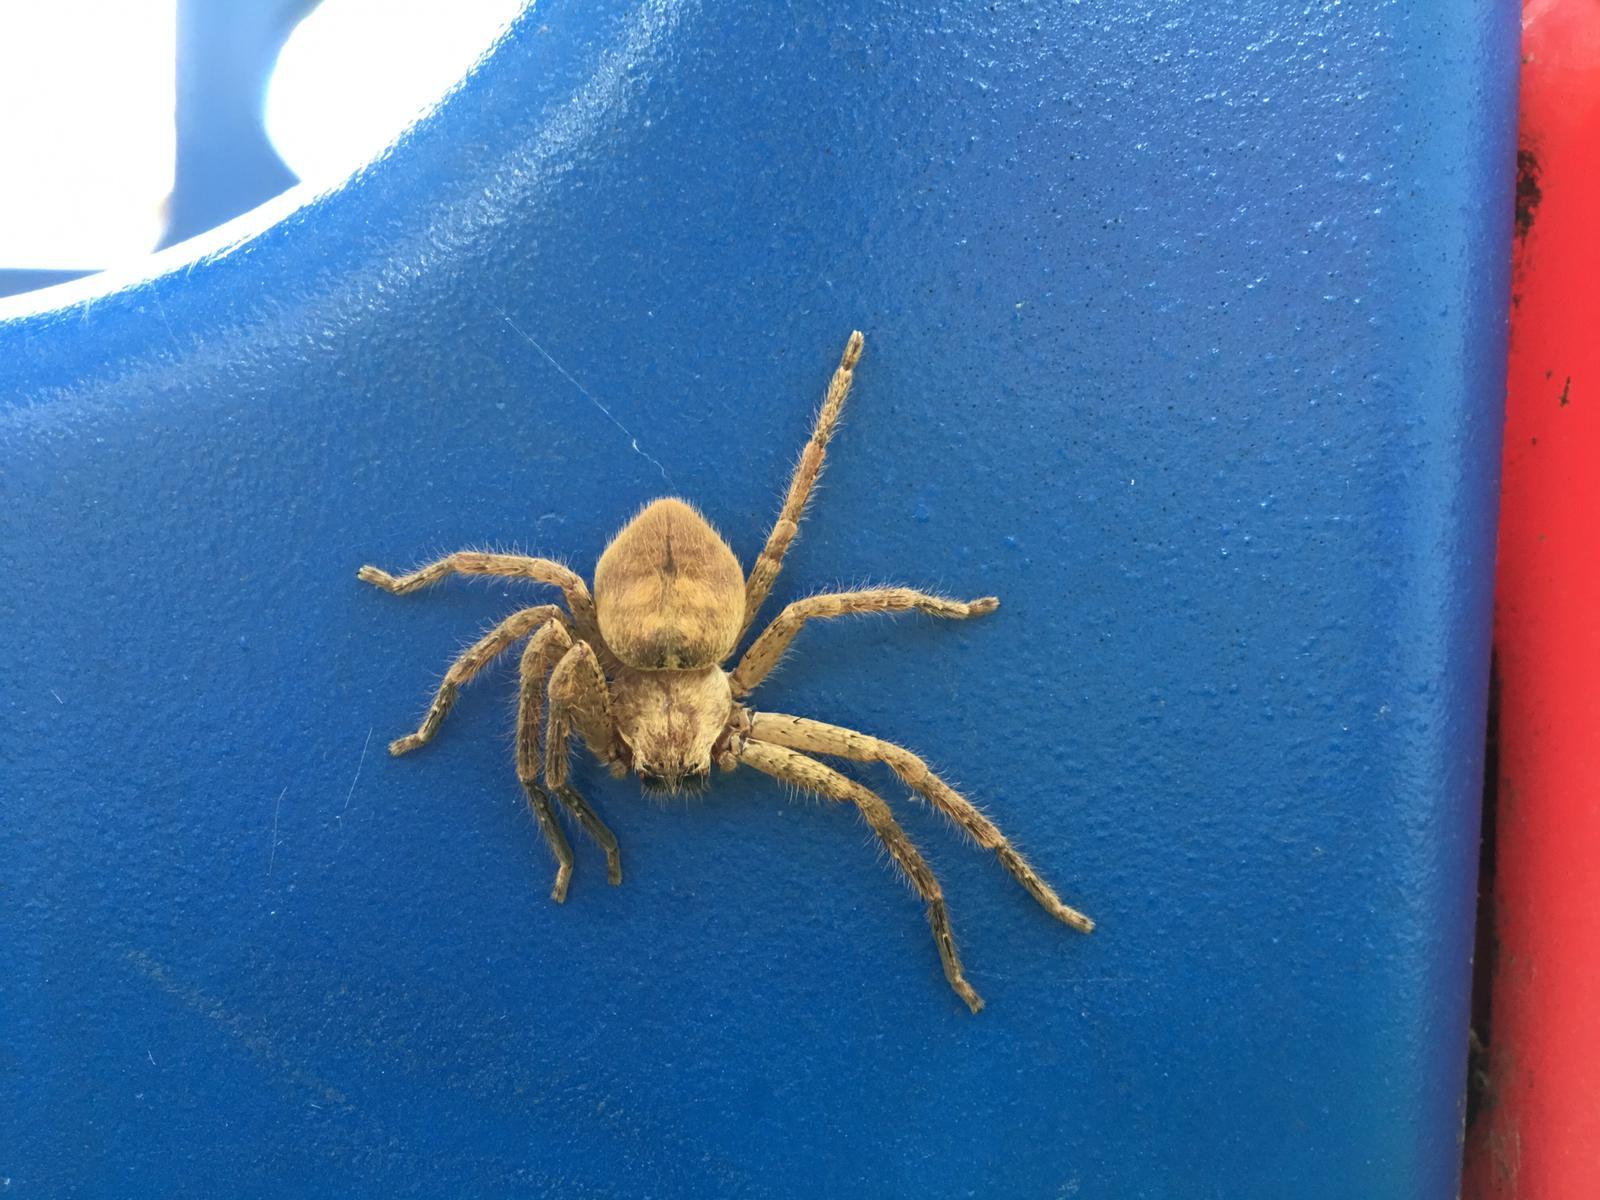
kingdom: Animalia
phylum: Arthropoda
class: Arachnida
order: Araneae
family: Sparassidae
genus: Polybetes
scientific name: Polybetes rapidus
